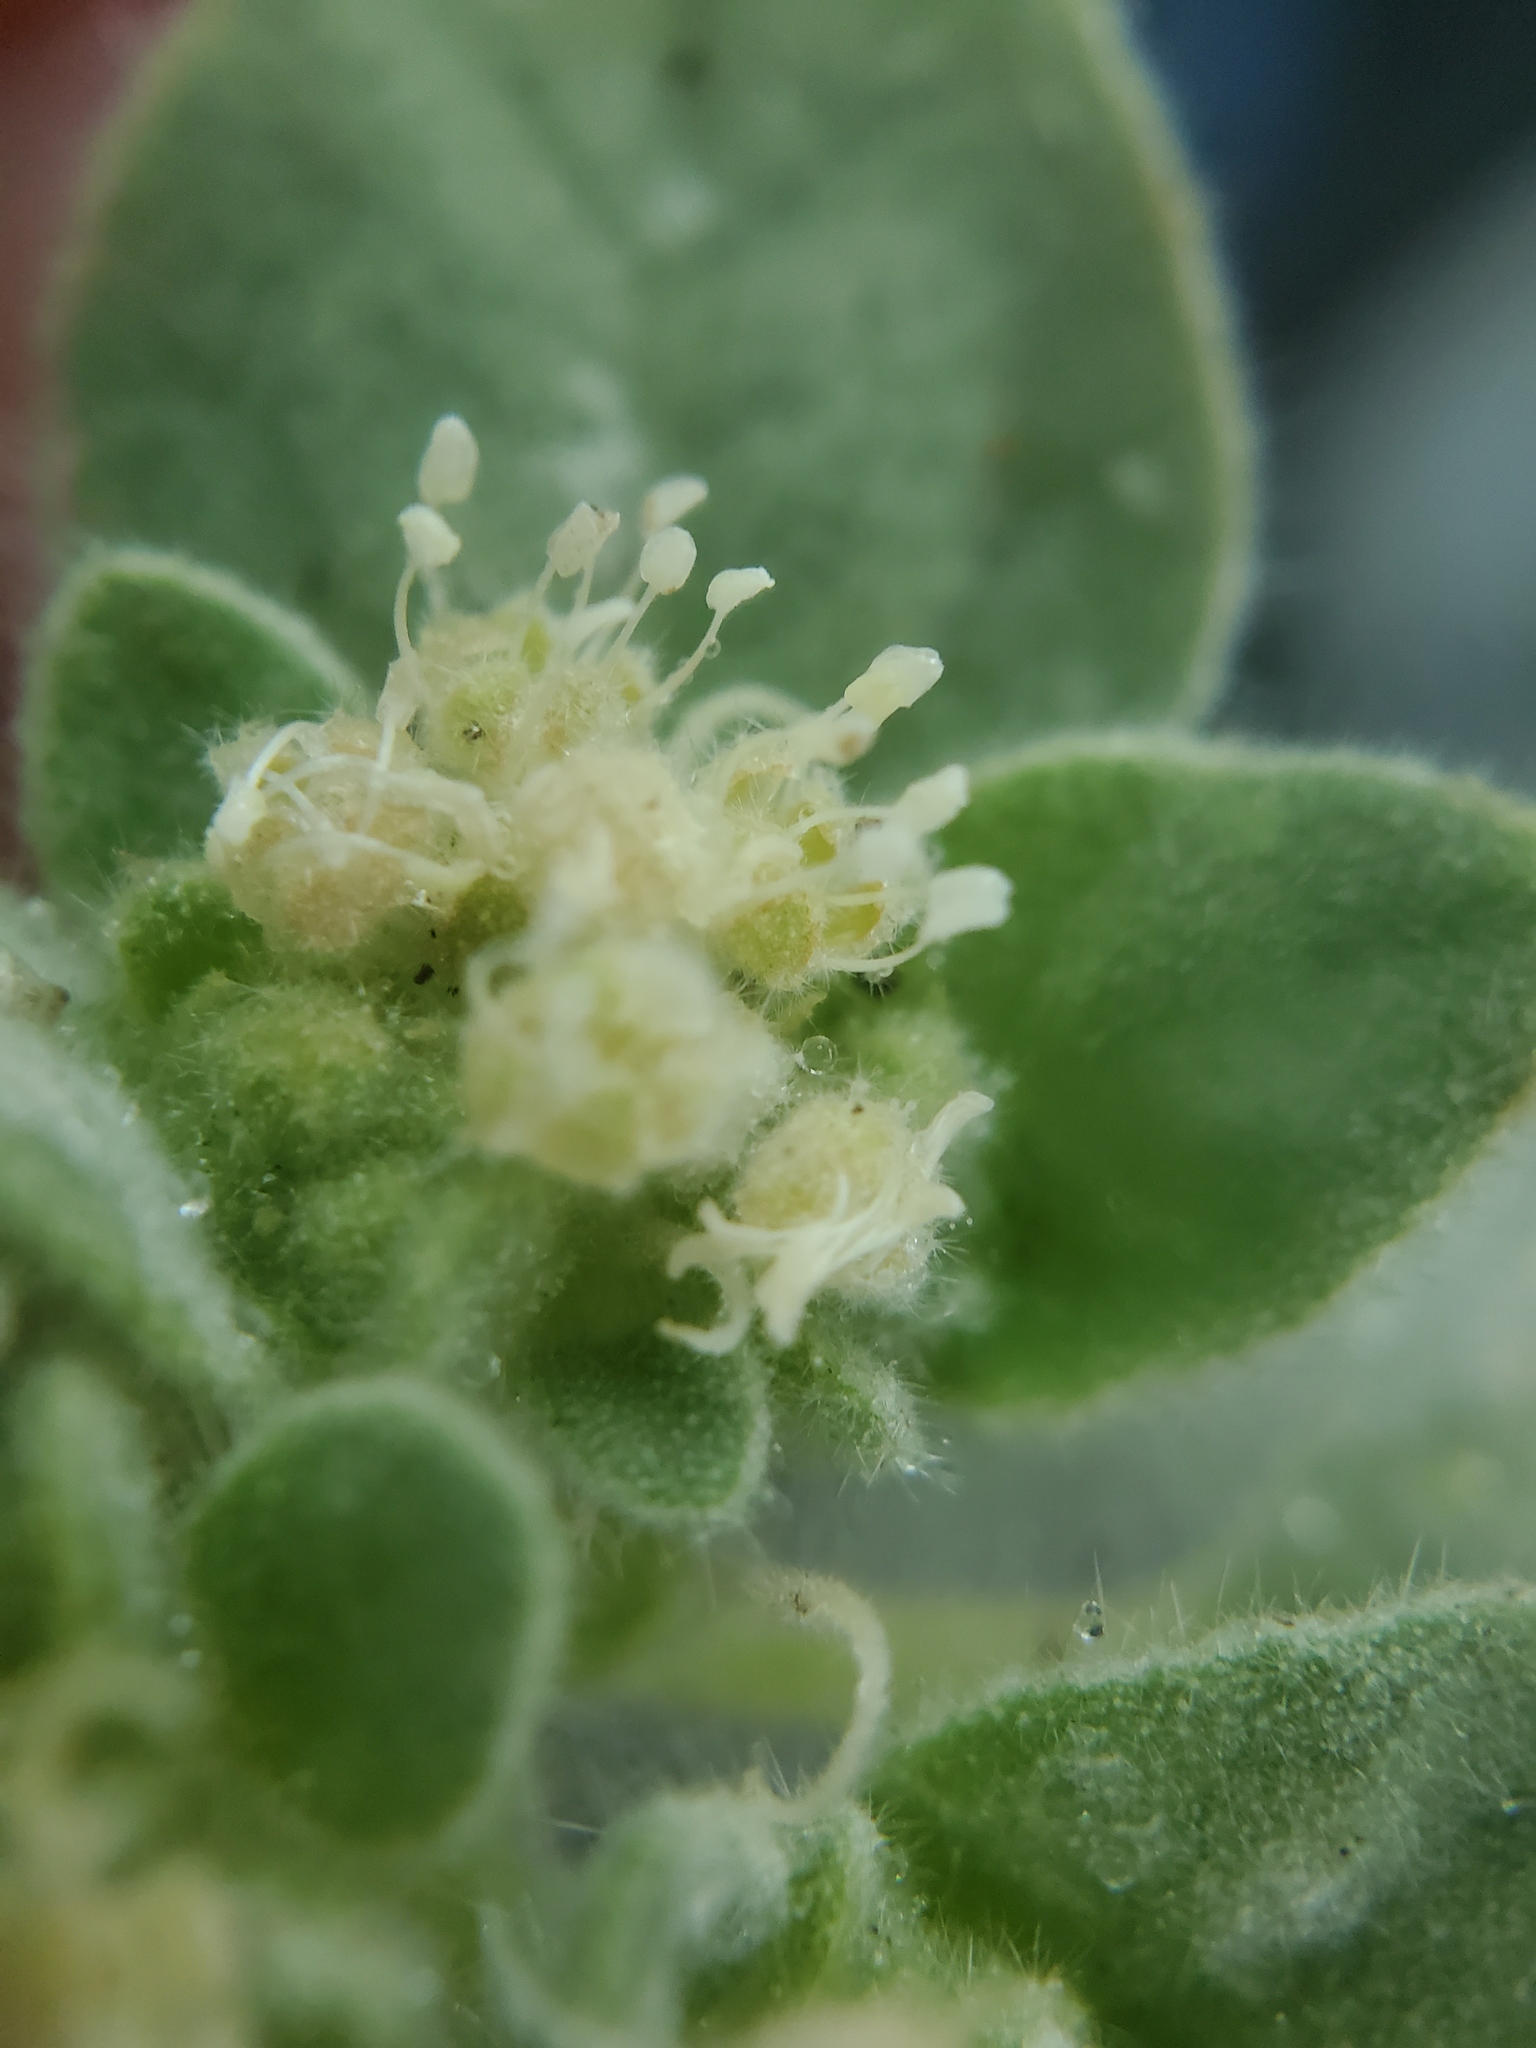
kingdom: Plantae
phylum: Tracheophyta
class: Magnoliopsida
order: Malpighiales
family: Euphorbiaceae
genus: Croton
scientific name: Croton setiger
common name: Dove weed
